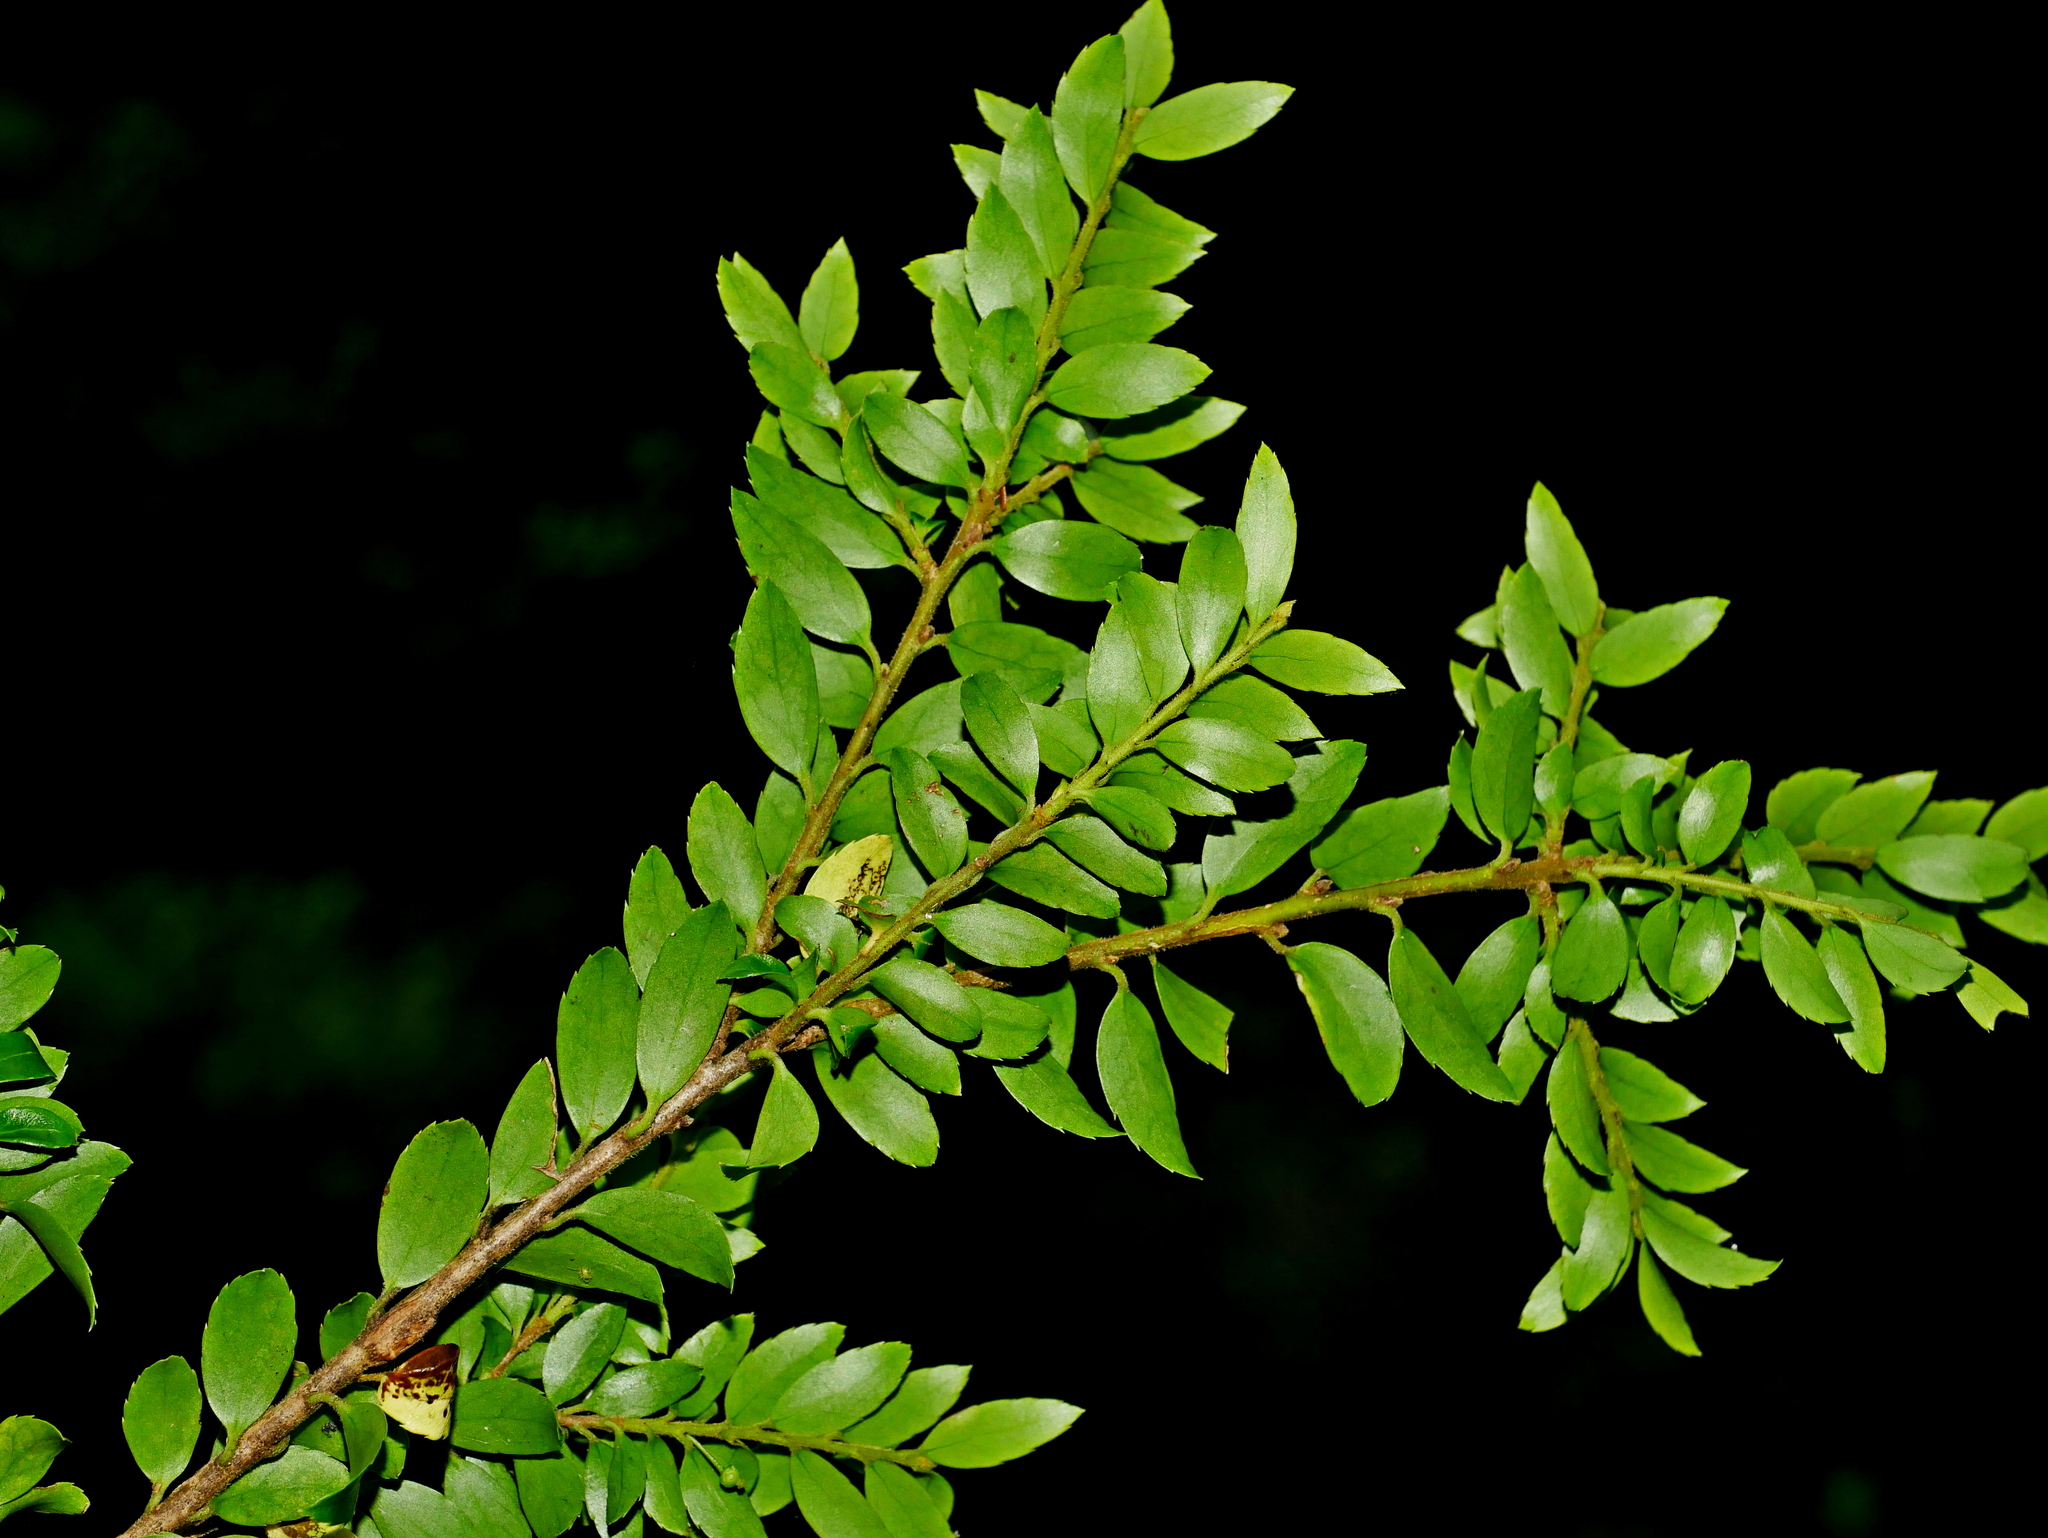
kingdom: Plantae
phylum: Tracheophyta
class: Magnoliopsida
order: Aquifoliales
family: Aquifoliaceae
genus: Ilex
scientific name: Ilex yunnanensis
